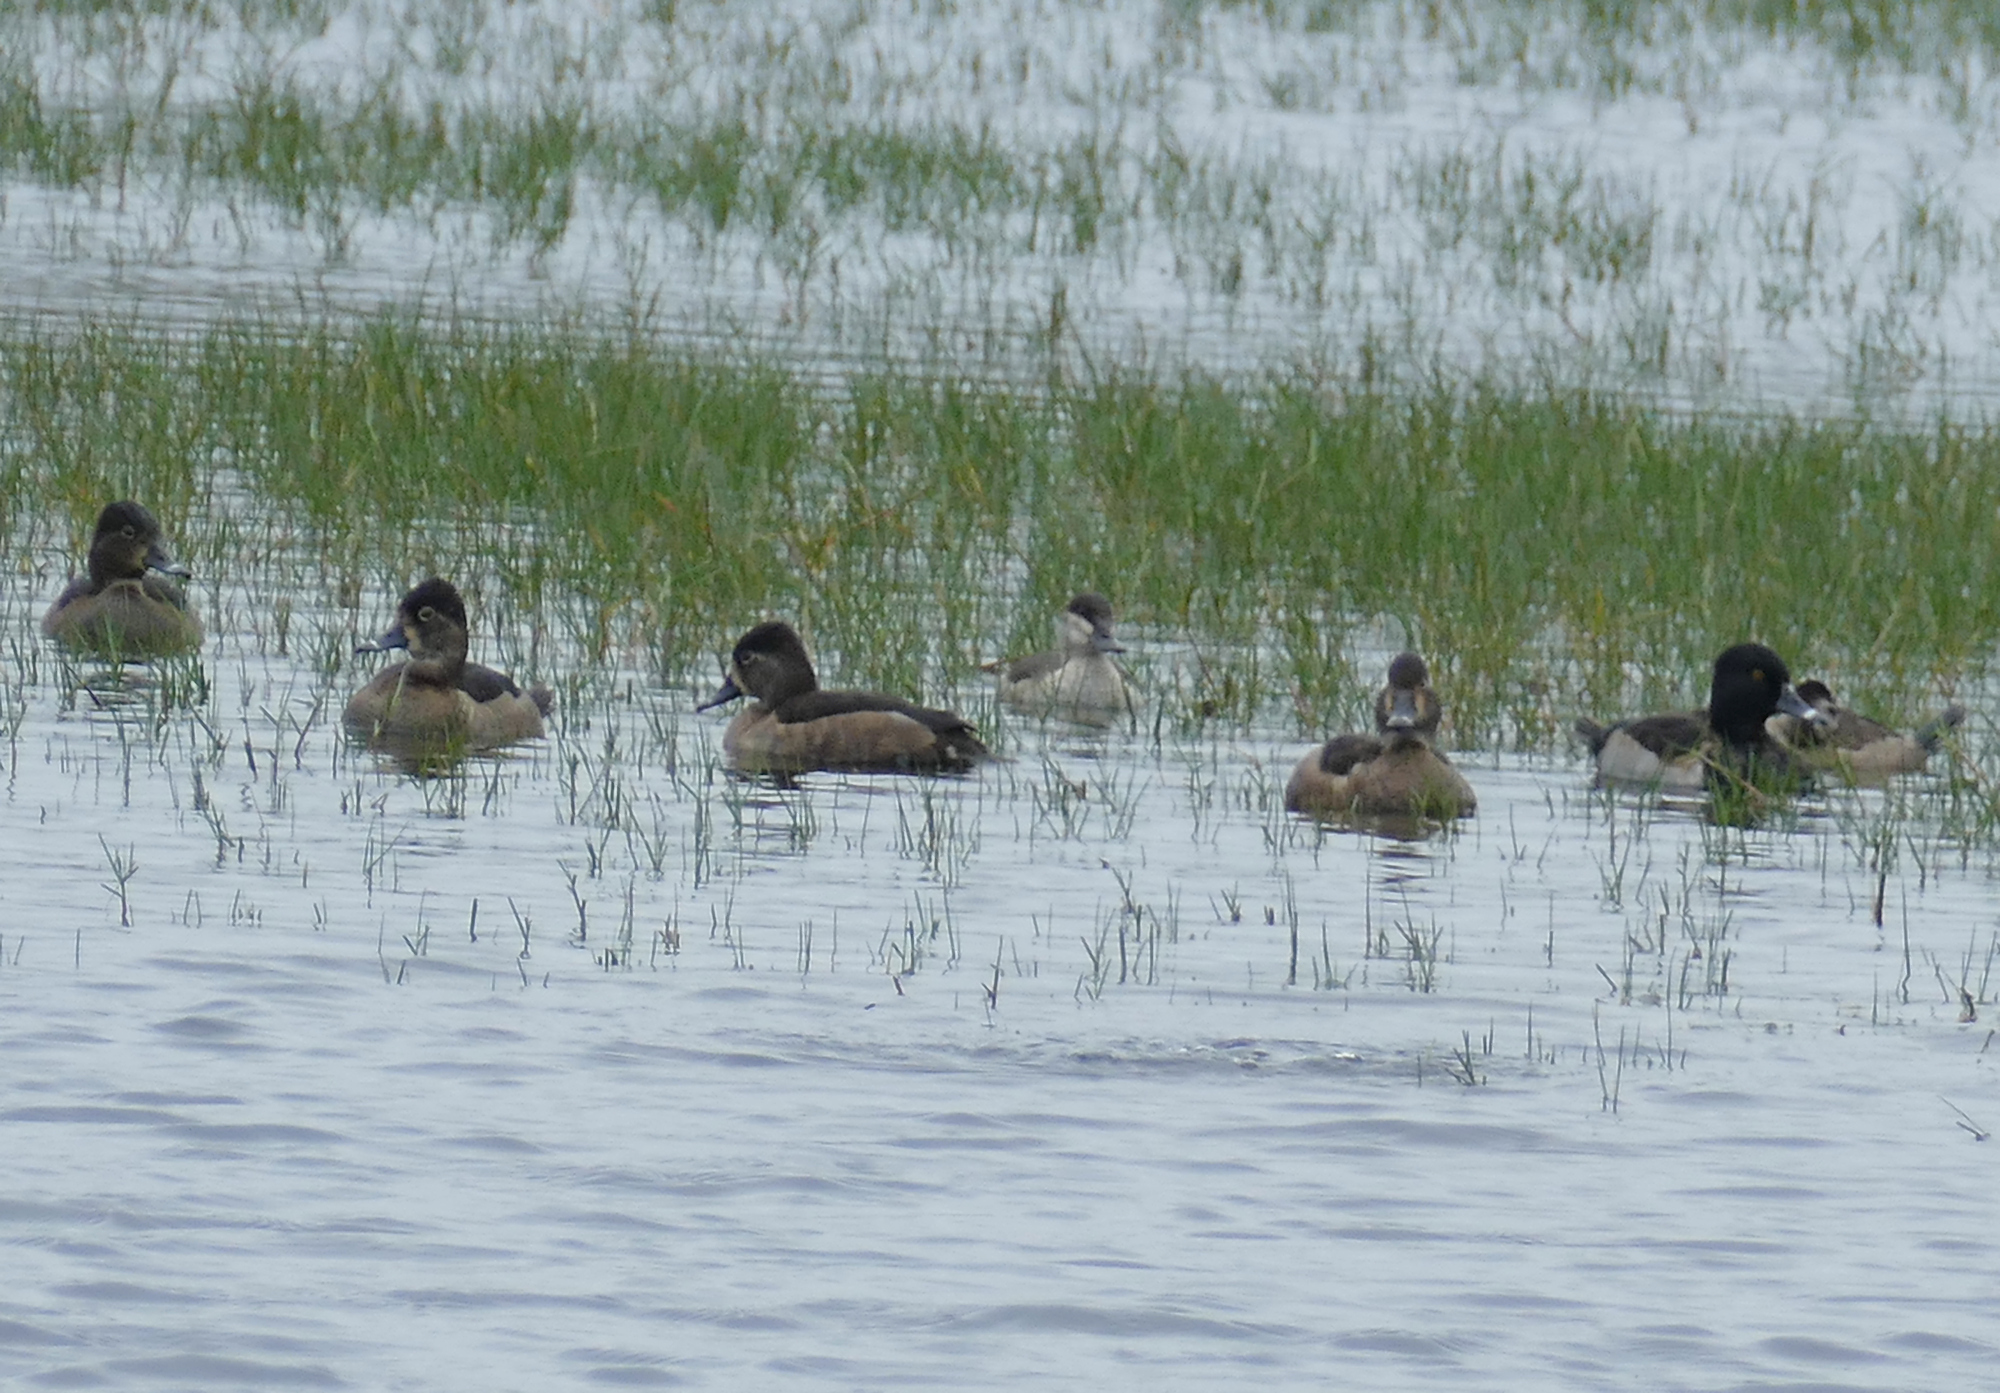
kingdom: Animalia
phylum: Chordata
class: Aves
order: Anseriformes
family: Anatidae
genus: Aythya
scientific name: Aythya collaris
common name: Ring-necked duck
